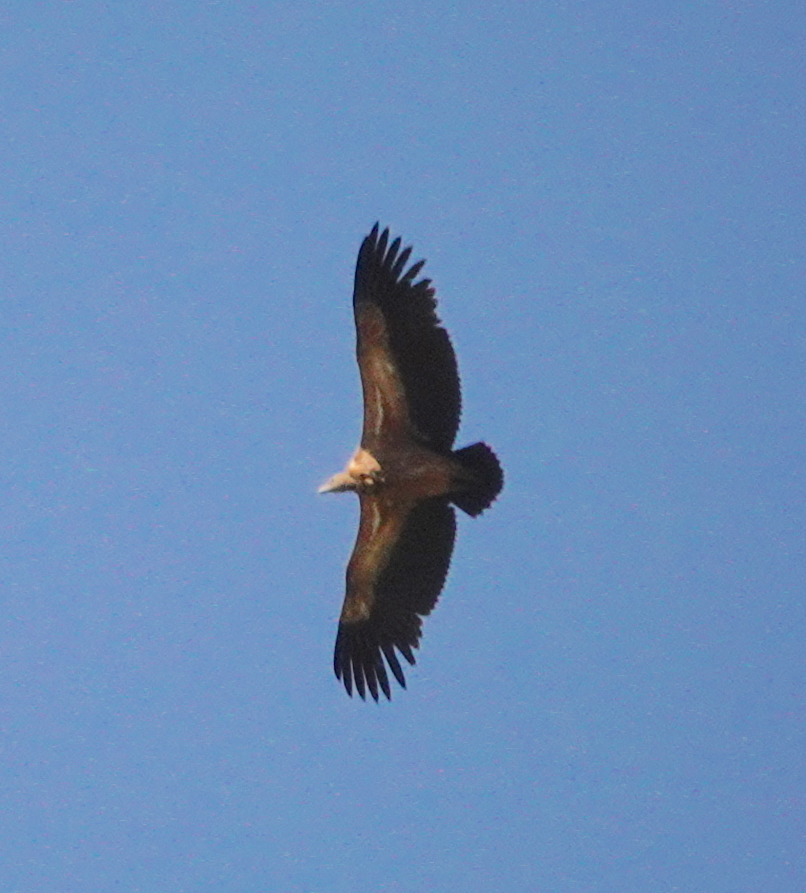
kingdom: Animalia
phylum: Chordata
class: Aves
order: Accipitriformes
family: Accipitridae
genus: Gyps
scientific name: Gyps fulvus
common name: Griffon vulture
